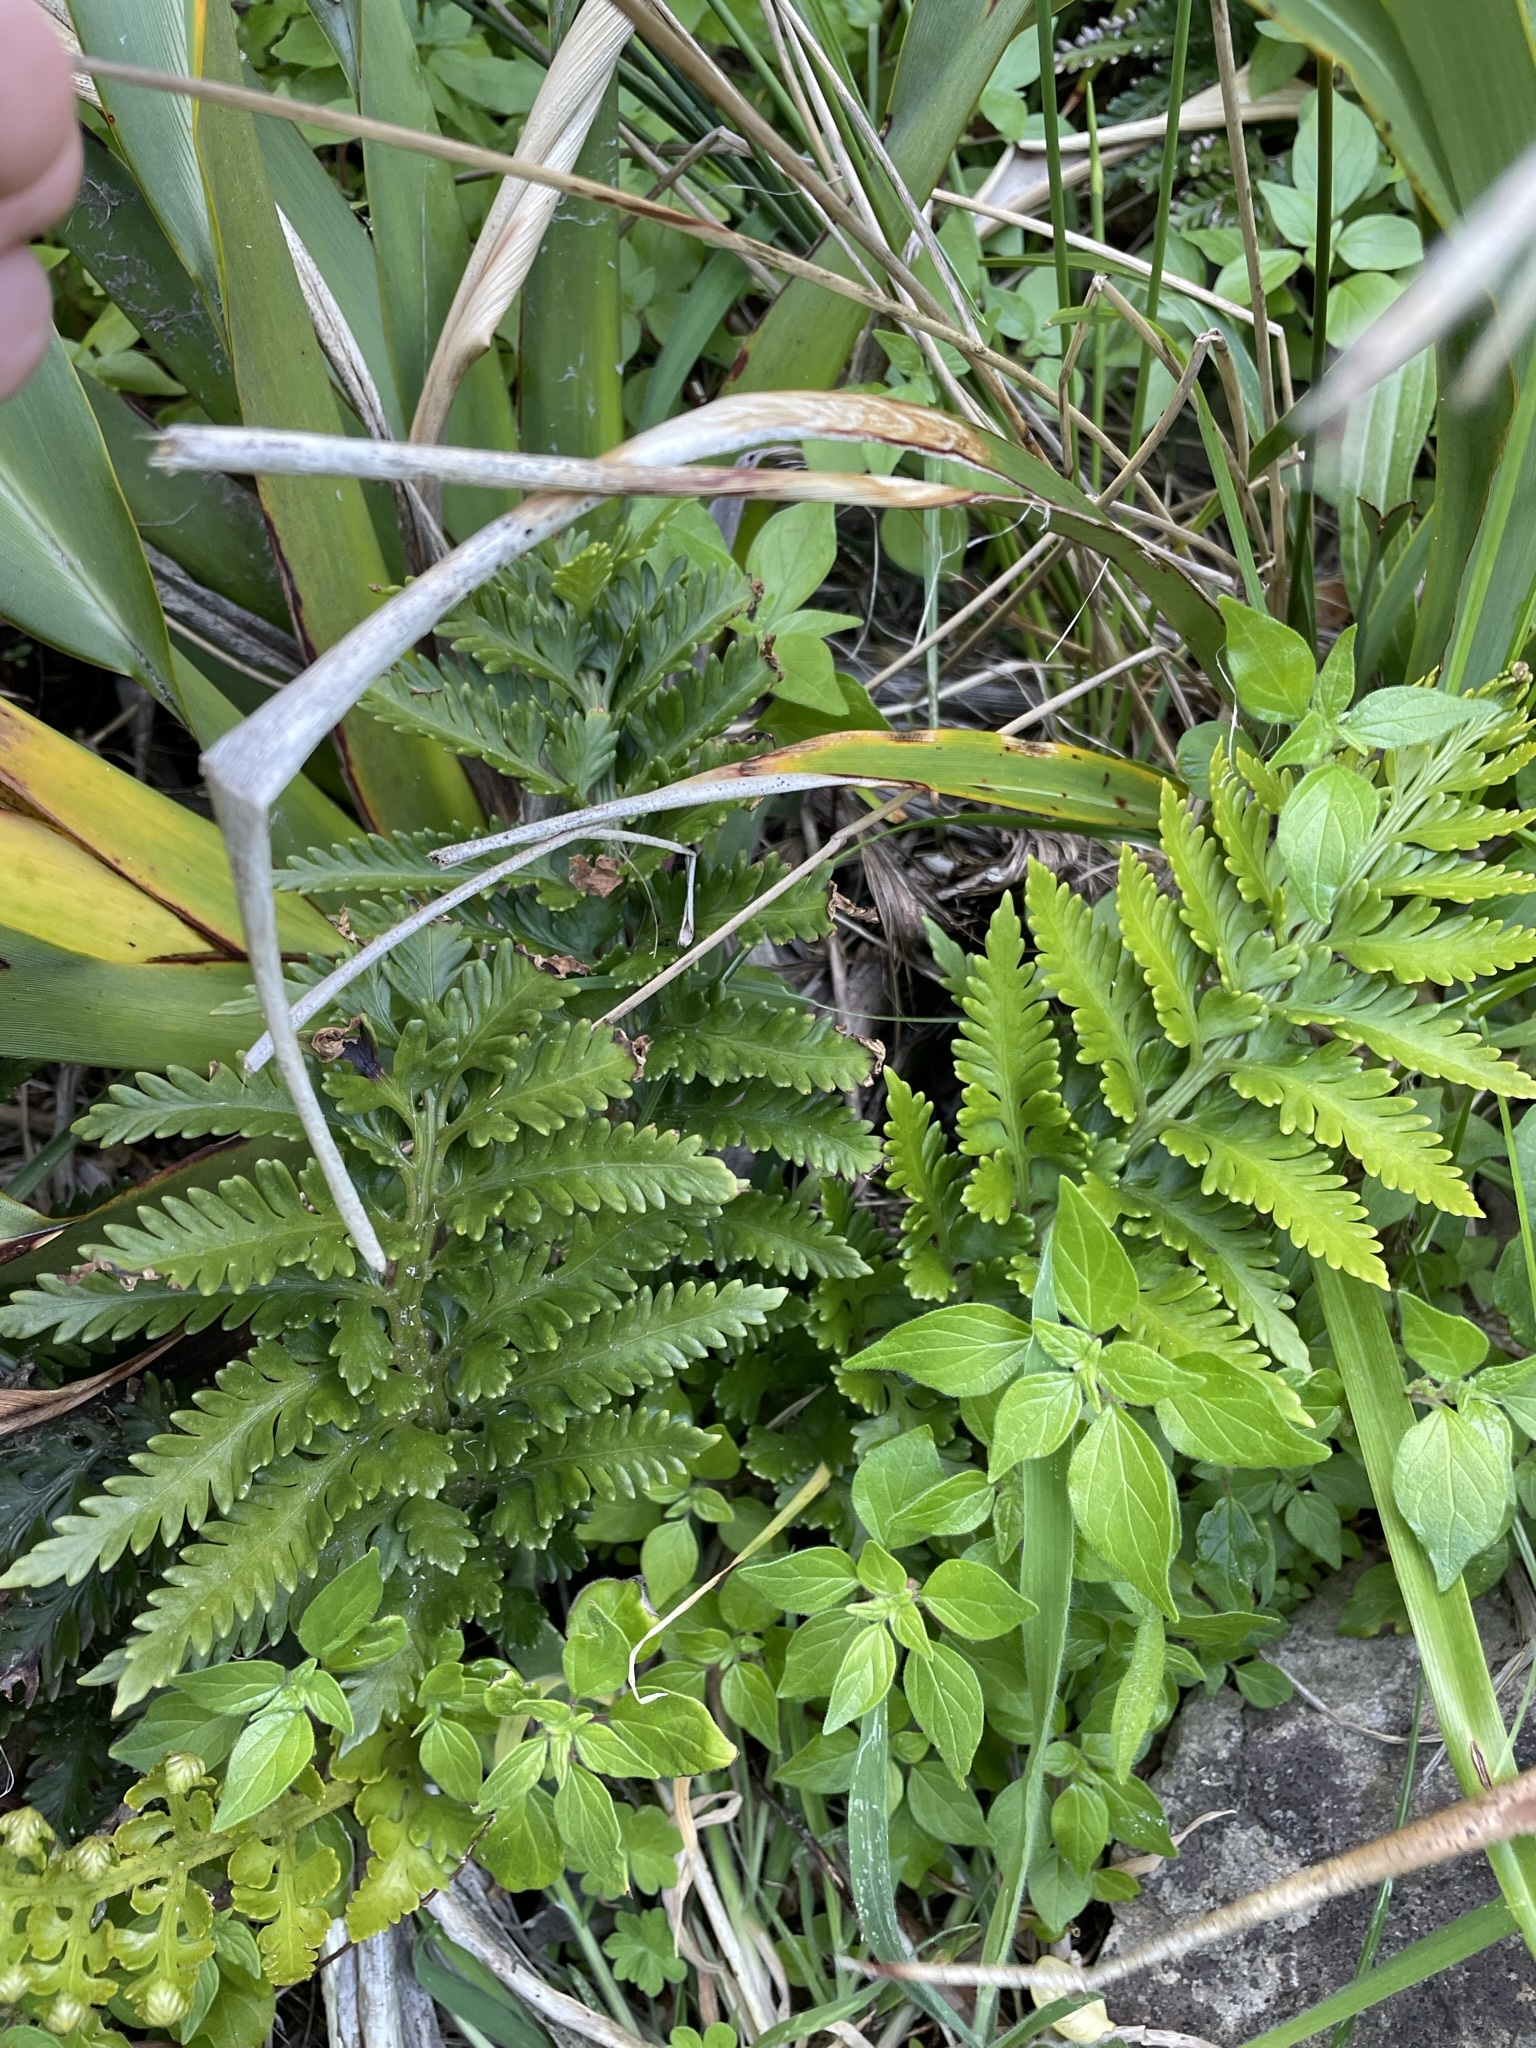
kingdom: Plantae
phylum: Tracheophyta
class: Polypodiopsida
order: Polypodiales
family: Aspleniaceae
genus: Asplenium
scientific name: Asplenium appendiculatum
